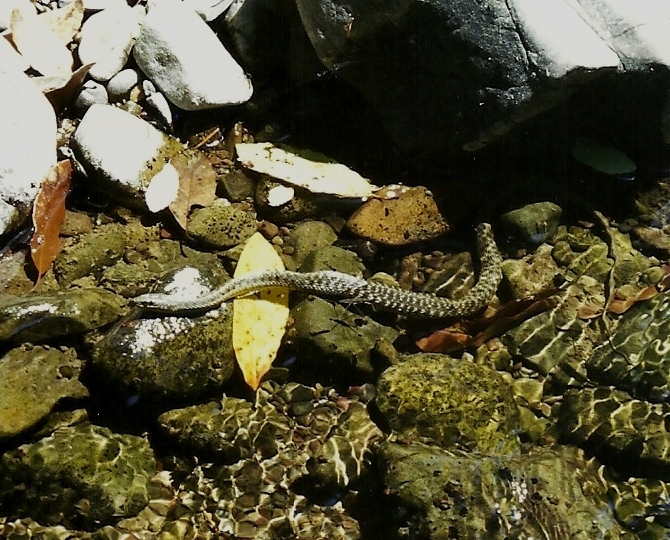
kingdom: Animalia
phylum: Chordata
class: Squamata
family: Colubridae
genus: Thamnophis
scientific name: Thamnophis atratus
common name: Pacific coast aquatic garter snake
